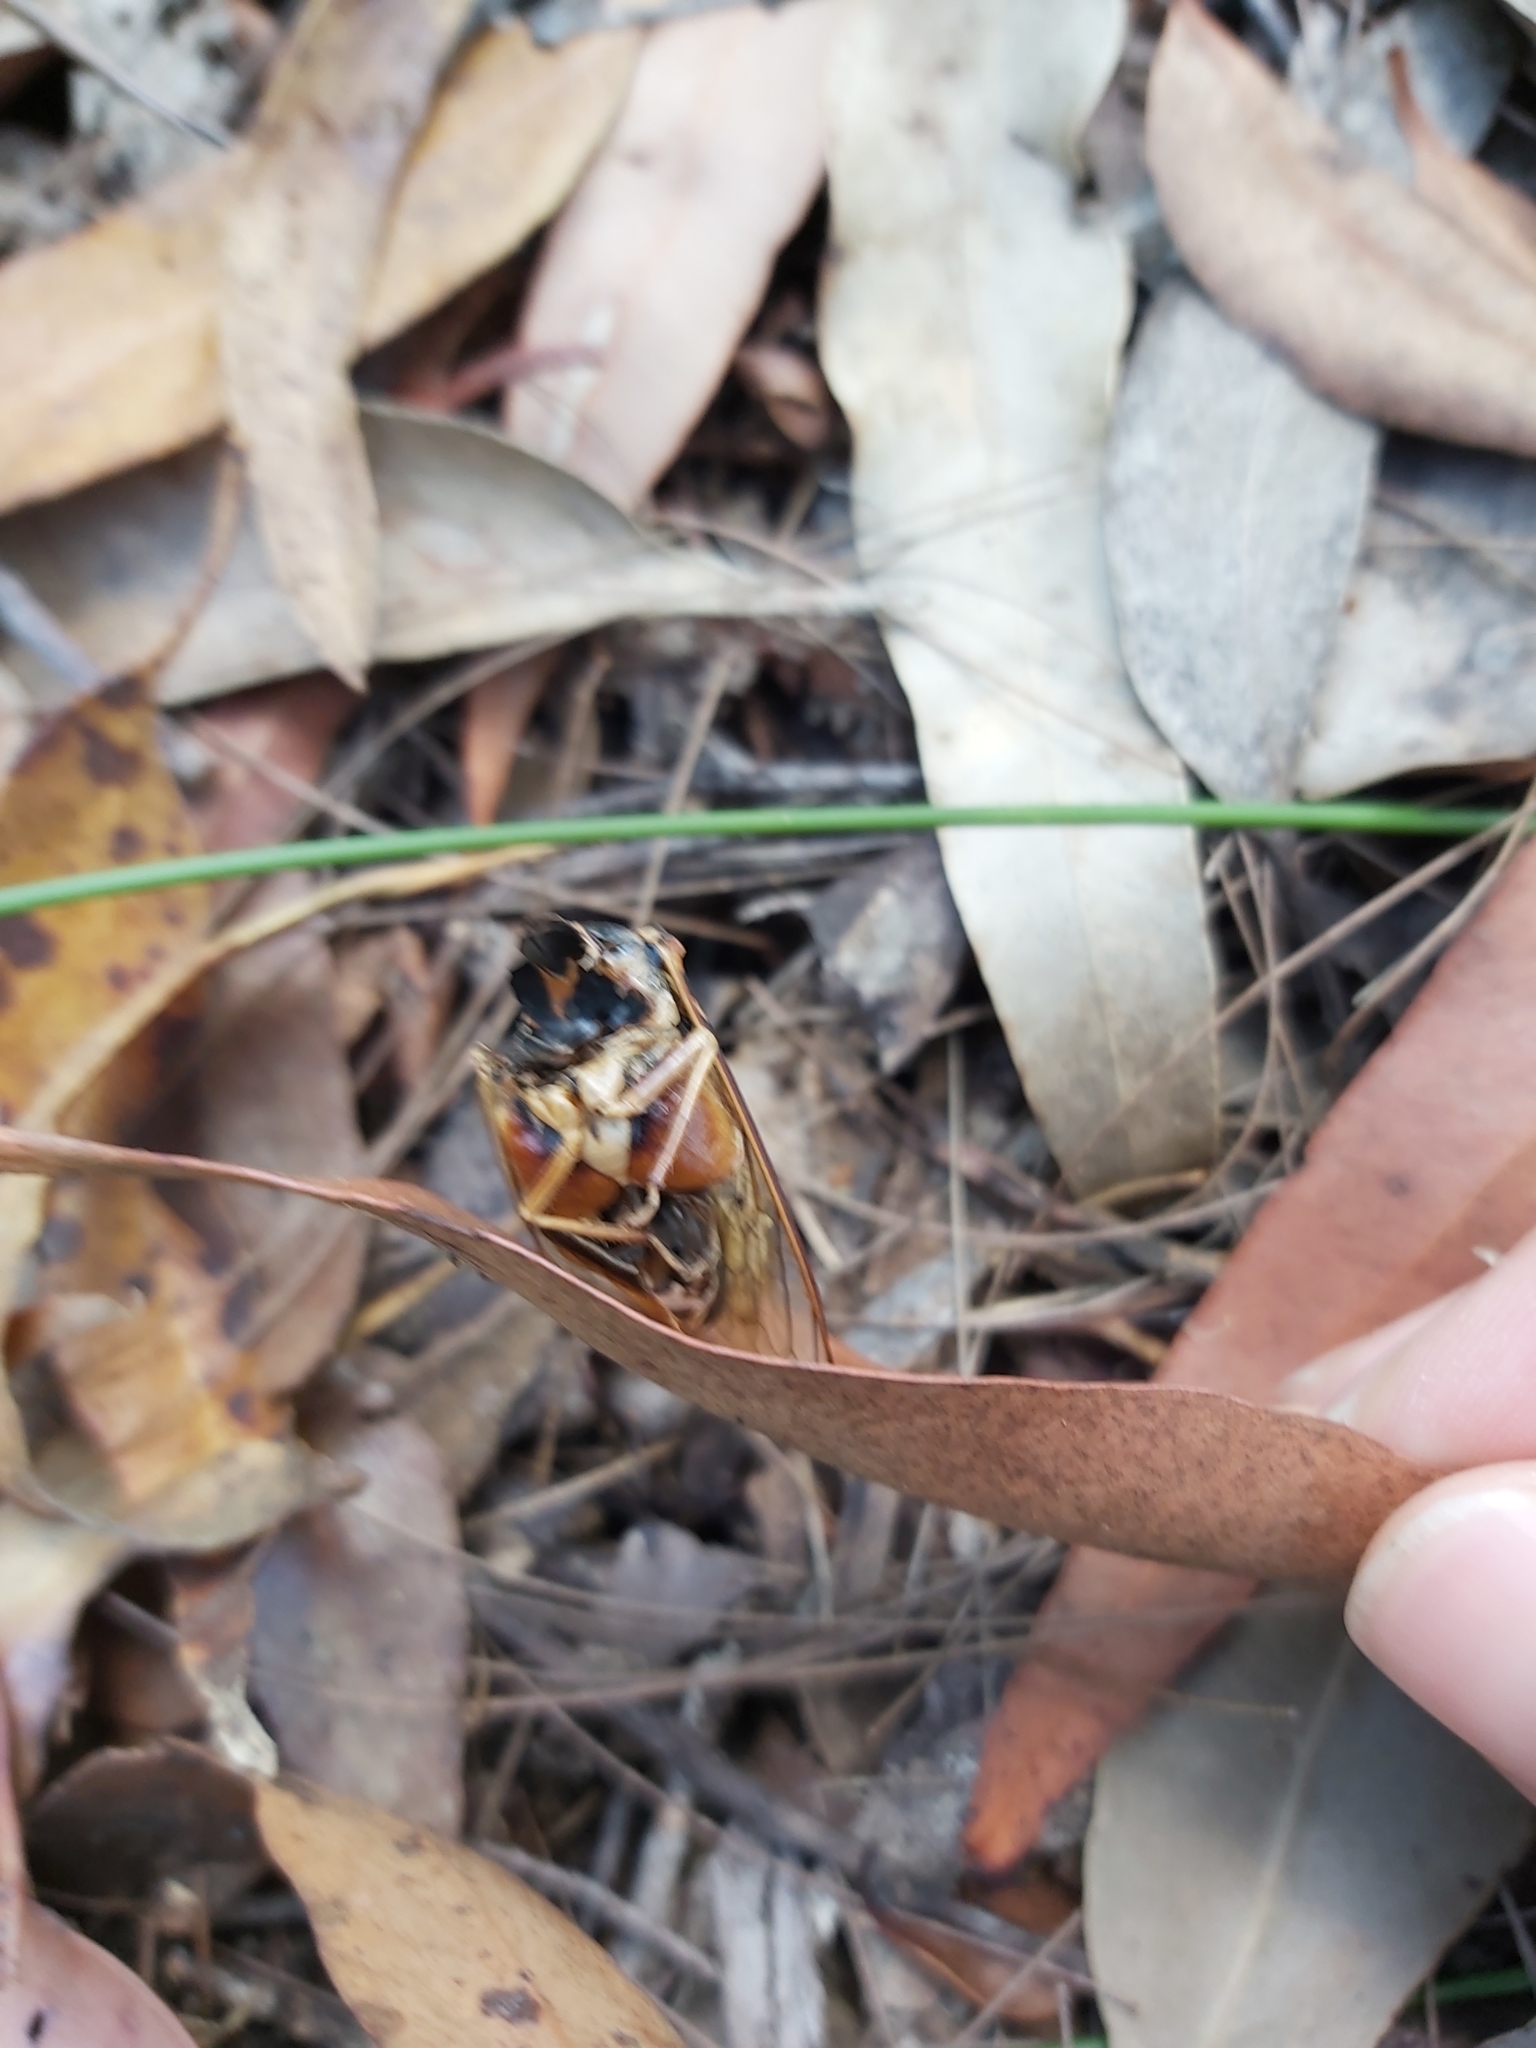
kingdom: Animalia
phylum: Arthropoda
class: Insecta
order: Hemiptera
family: Cicadidae
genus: Psaltoda
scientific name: Psaltoda harrisii
